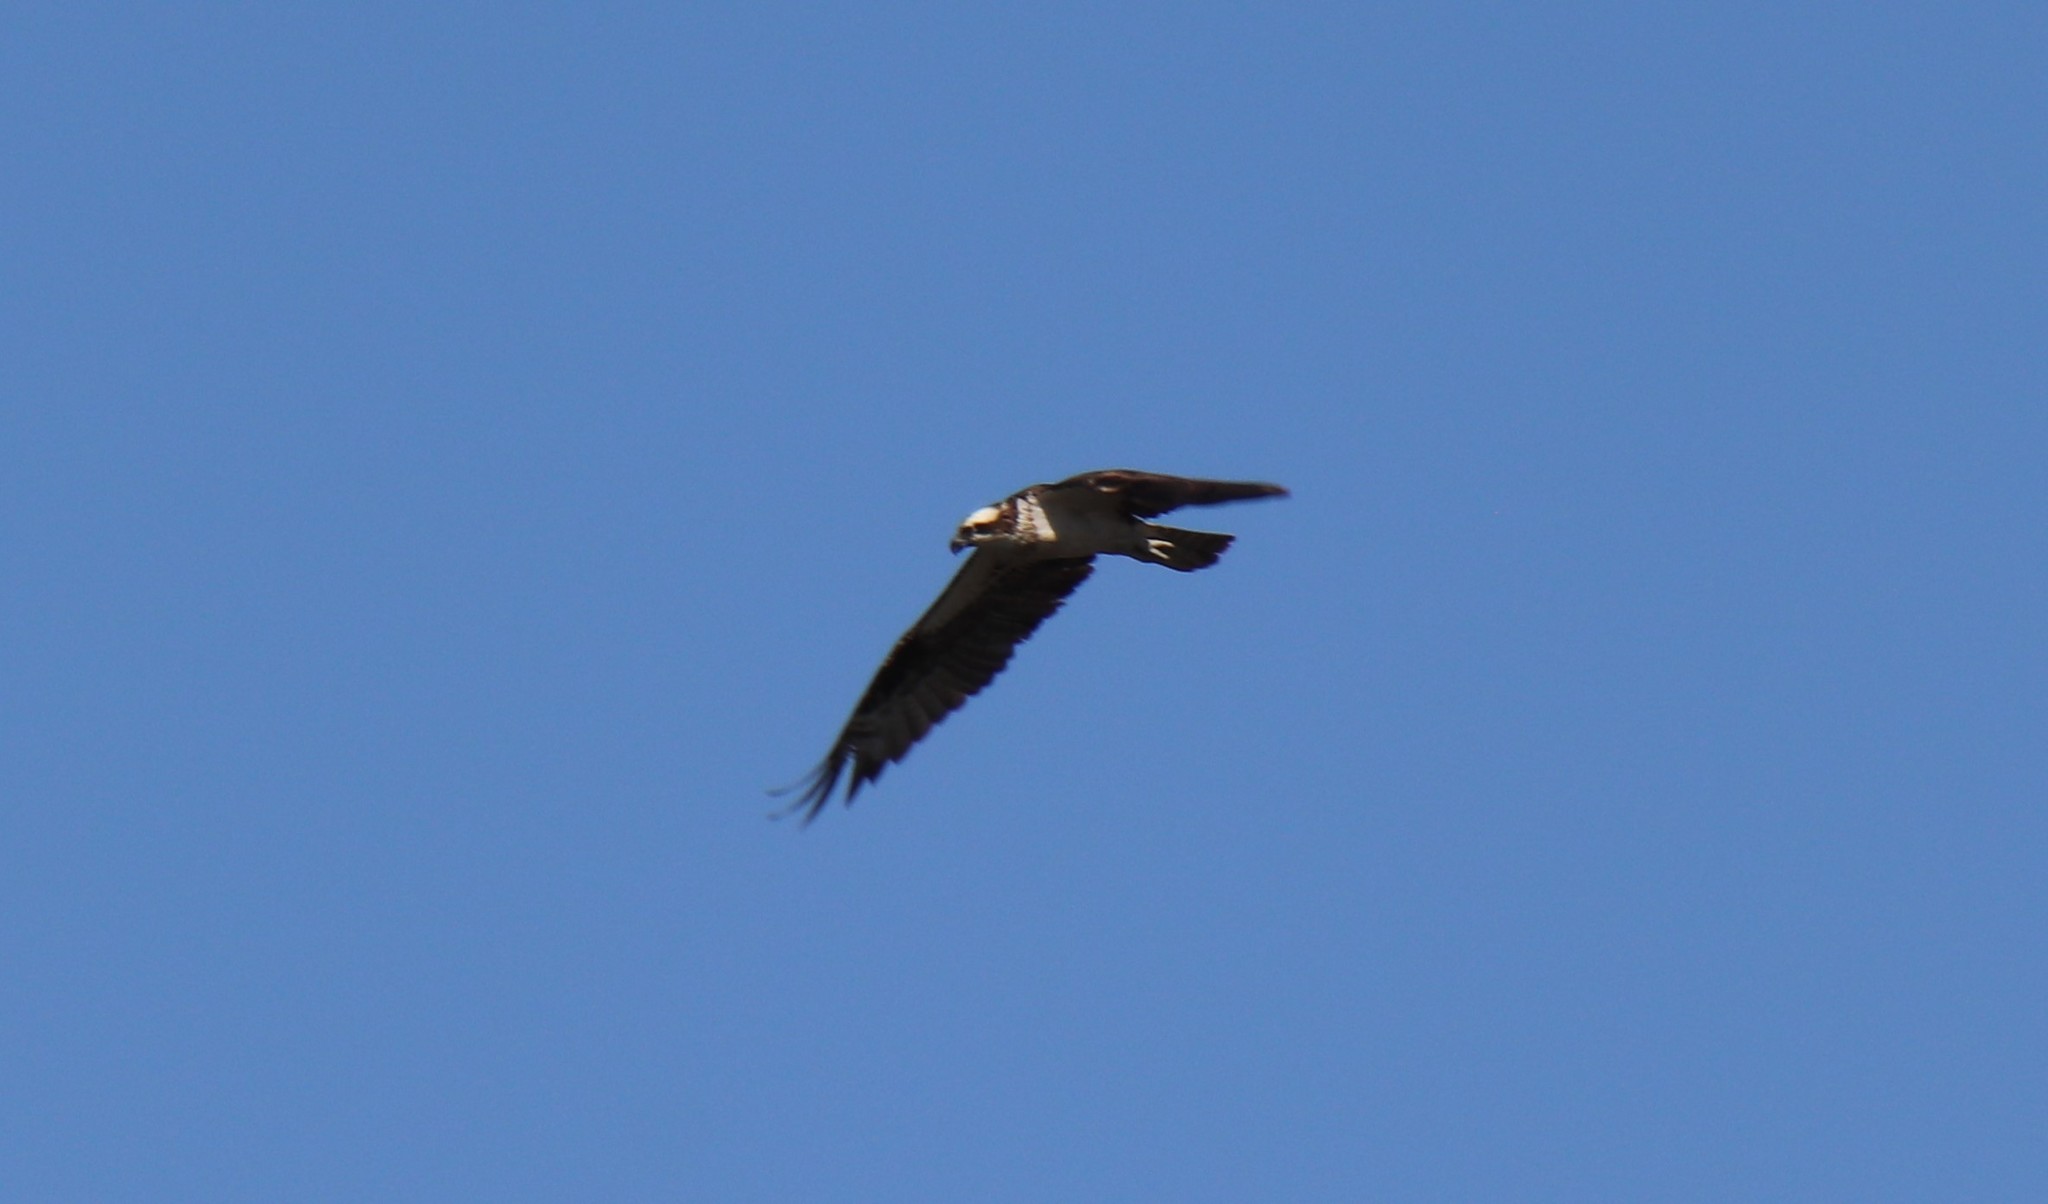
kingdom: Animalia
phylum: Chordata
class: Aves
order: Accipitriformes
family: Pandionidae
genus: Pandion
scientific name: Pandion haliaetus
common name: Osprey
